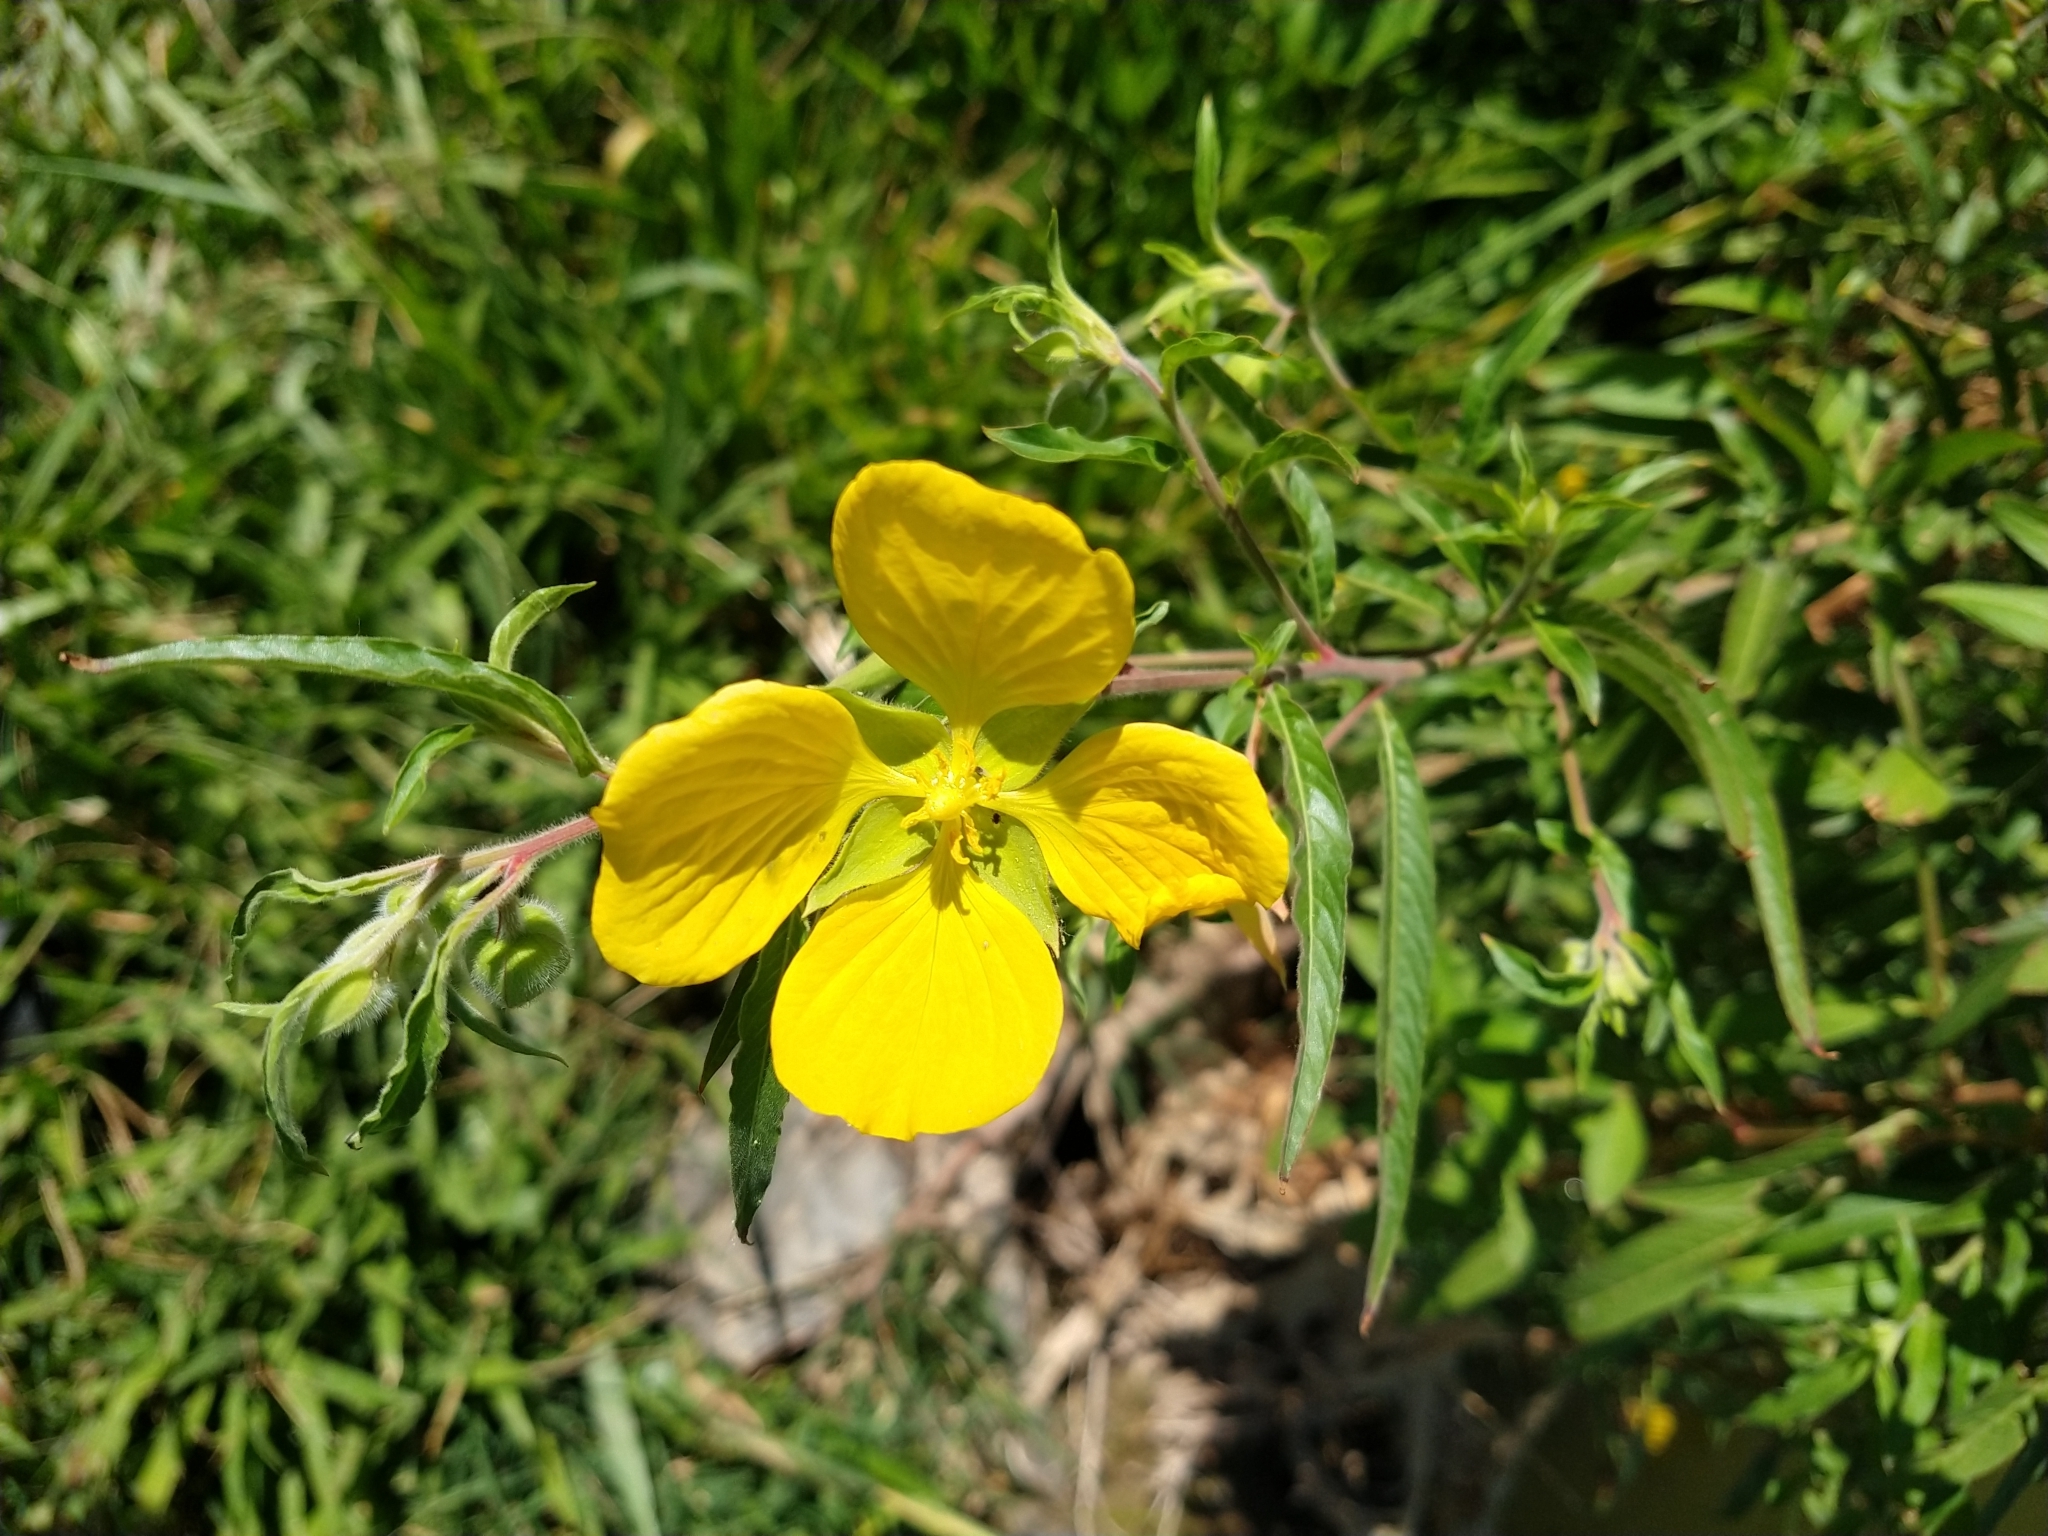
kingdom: Plantae
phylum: Tracheophyta
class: Magnoliopsida
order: Myrtales
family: Onagraceae
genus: Ludwigia
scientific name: Ludwigia bonariensis
